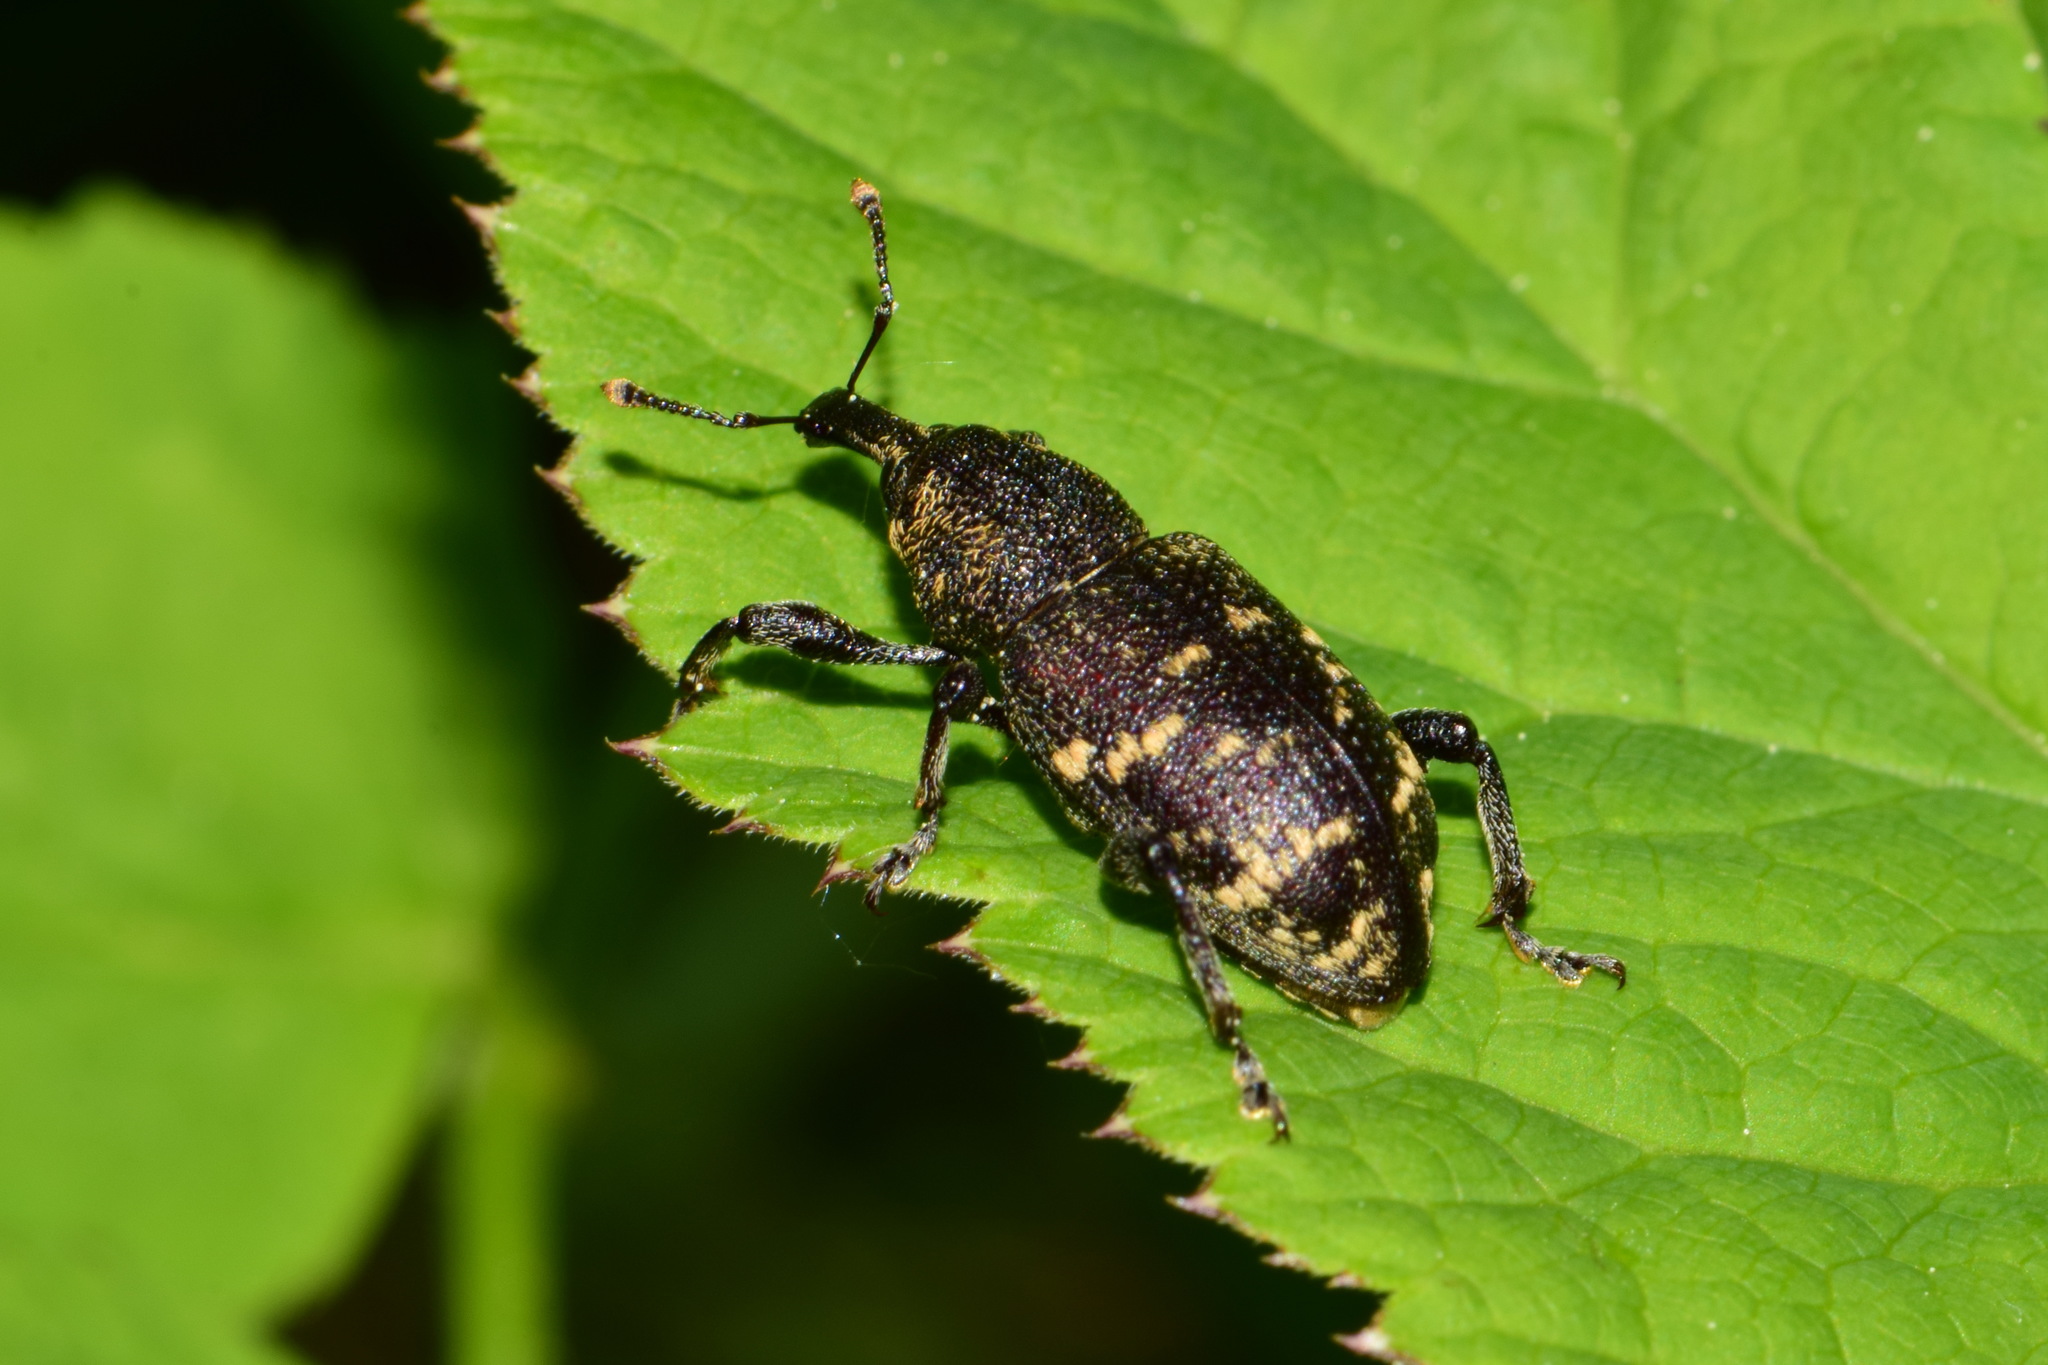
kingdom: Animalia
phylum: Arthropoda
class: Insecta
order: Coleoptera
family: Curculionidae
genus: Hylobius
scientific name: Hylobius abietis
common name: Large pine weevil
